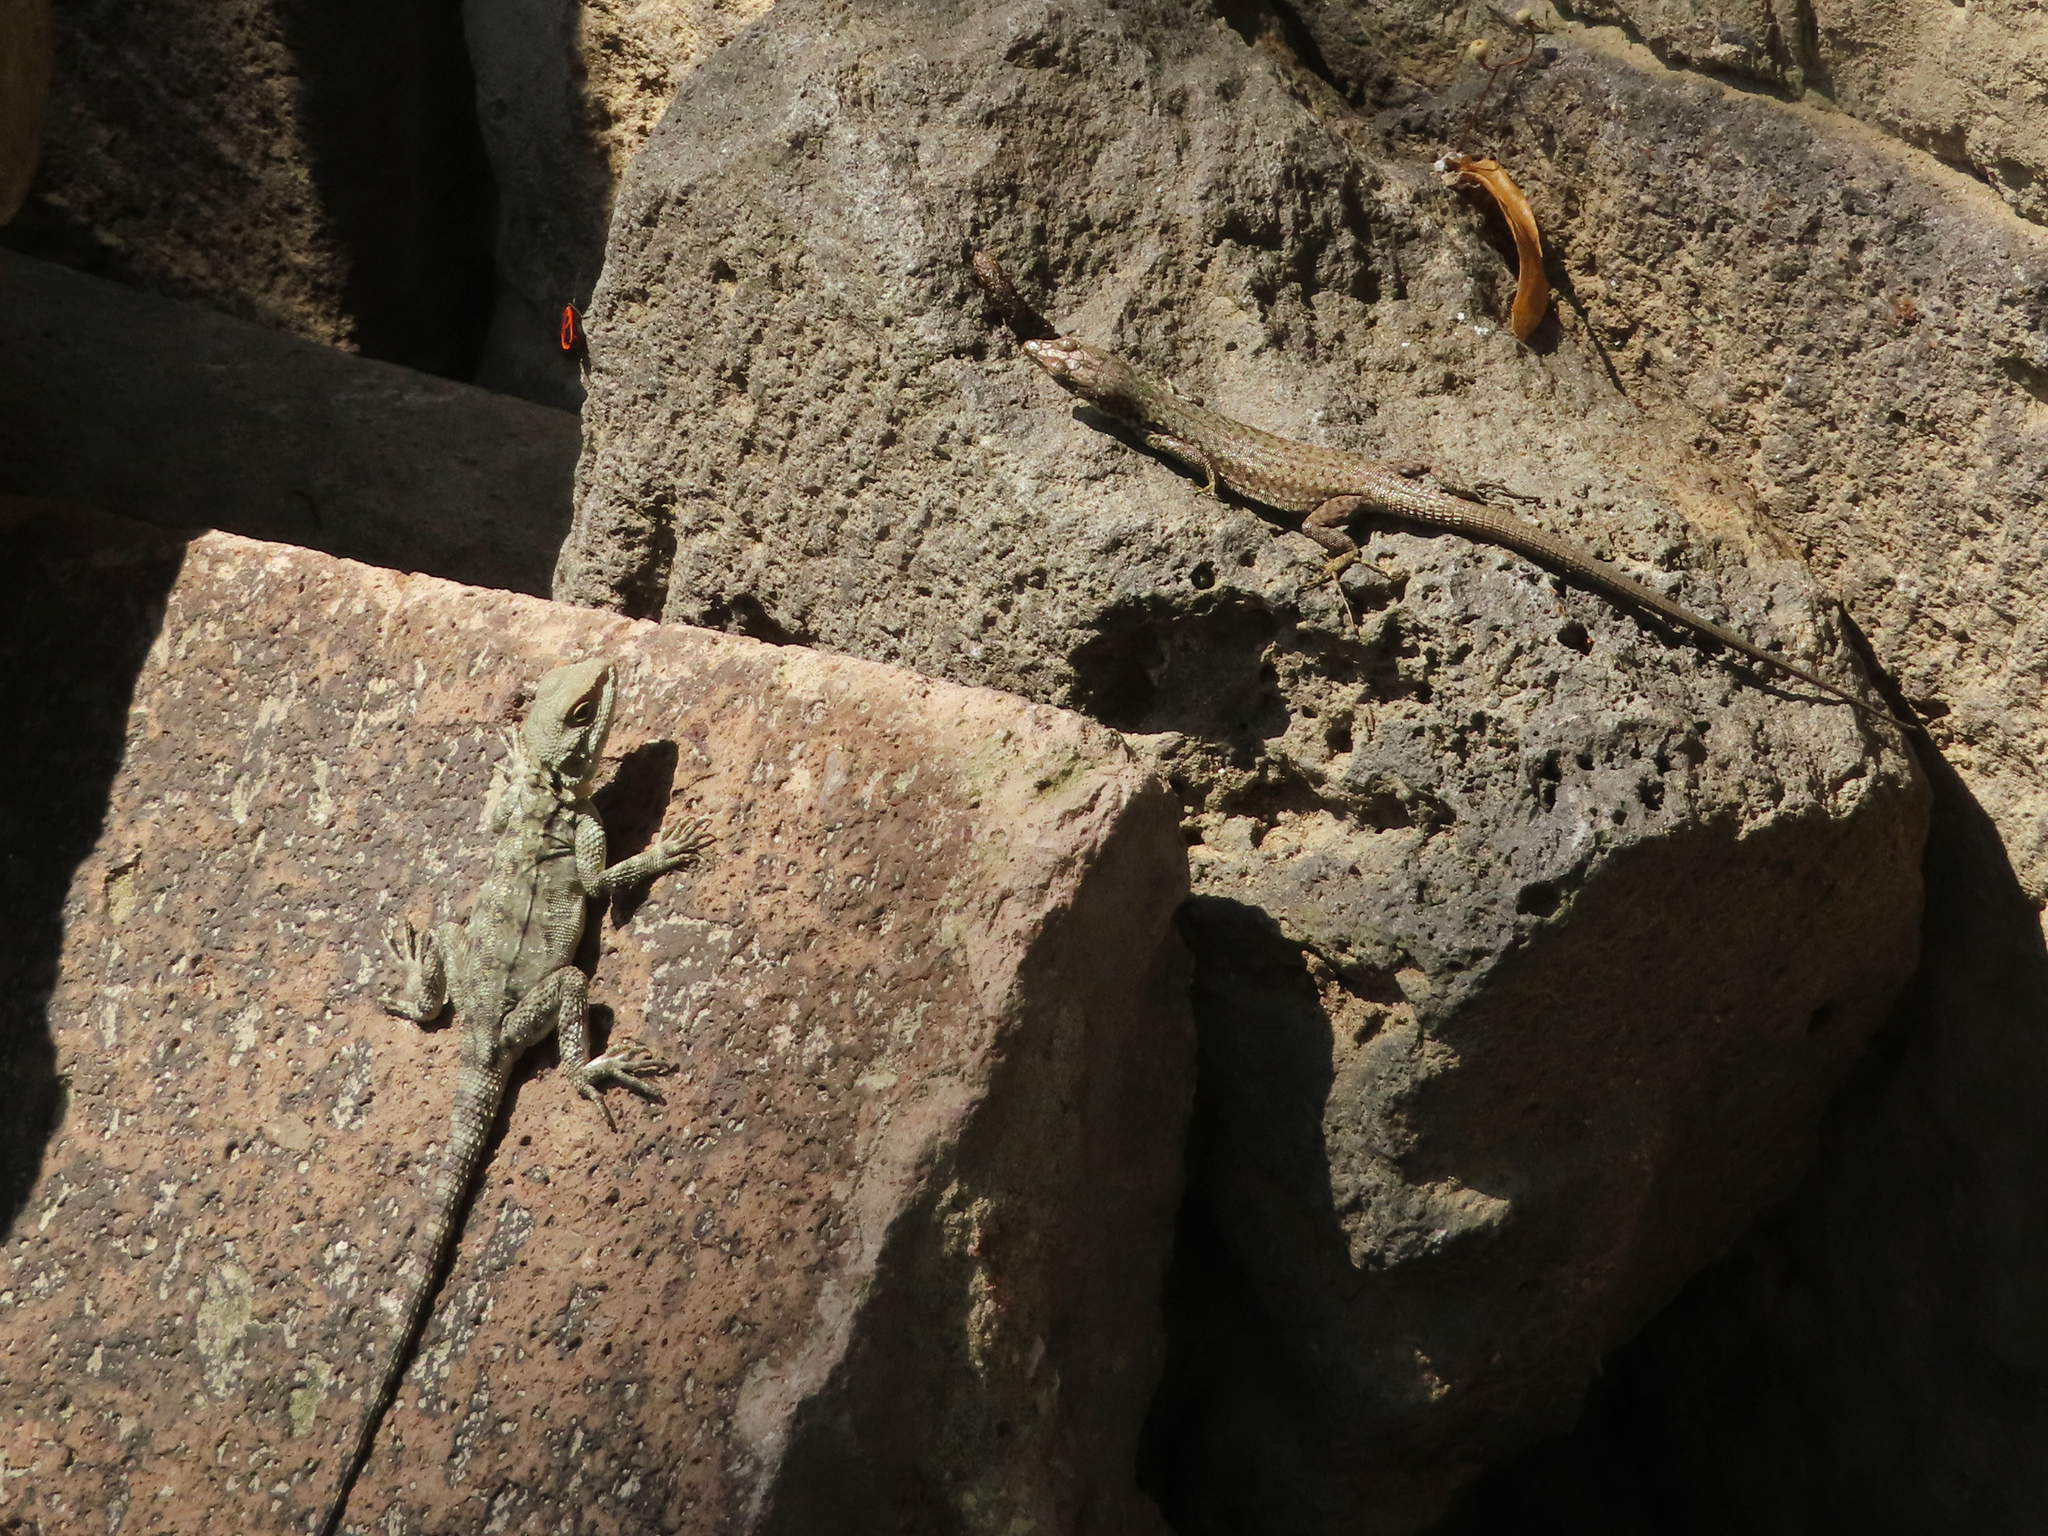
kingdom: Animalia
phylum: Chordata
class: Squamata
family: Agamidae
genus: Paralaudakia
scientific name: Paralaudakia caucasia
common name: Caucasian agama
